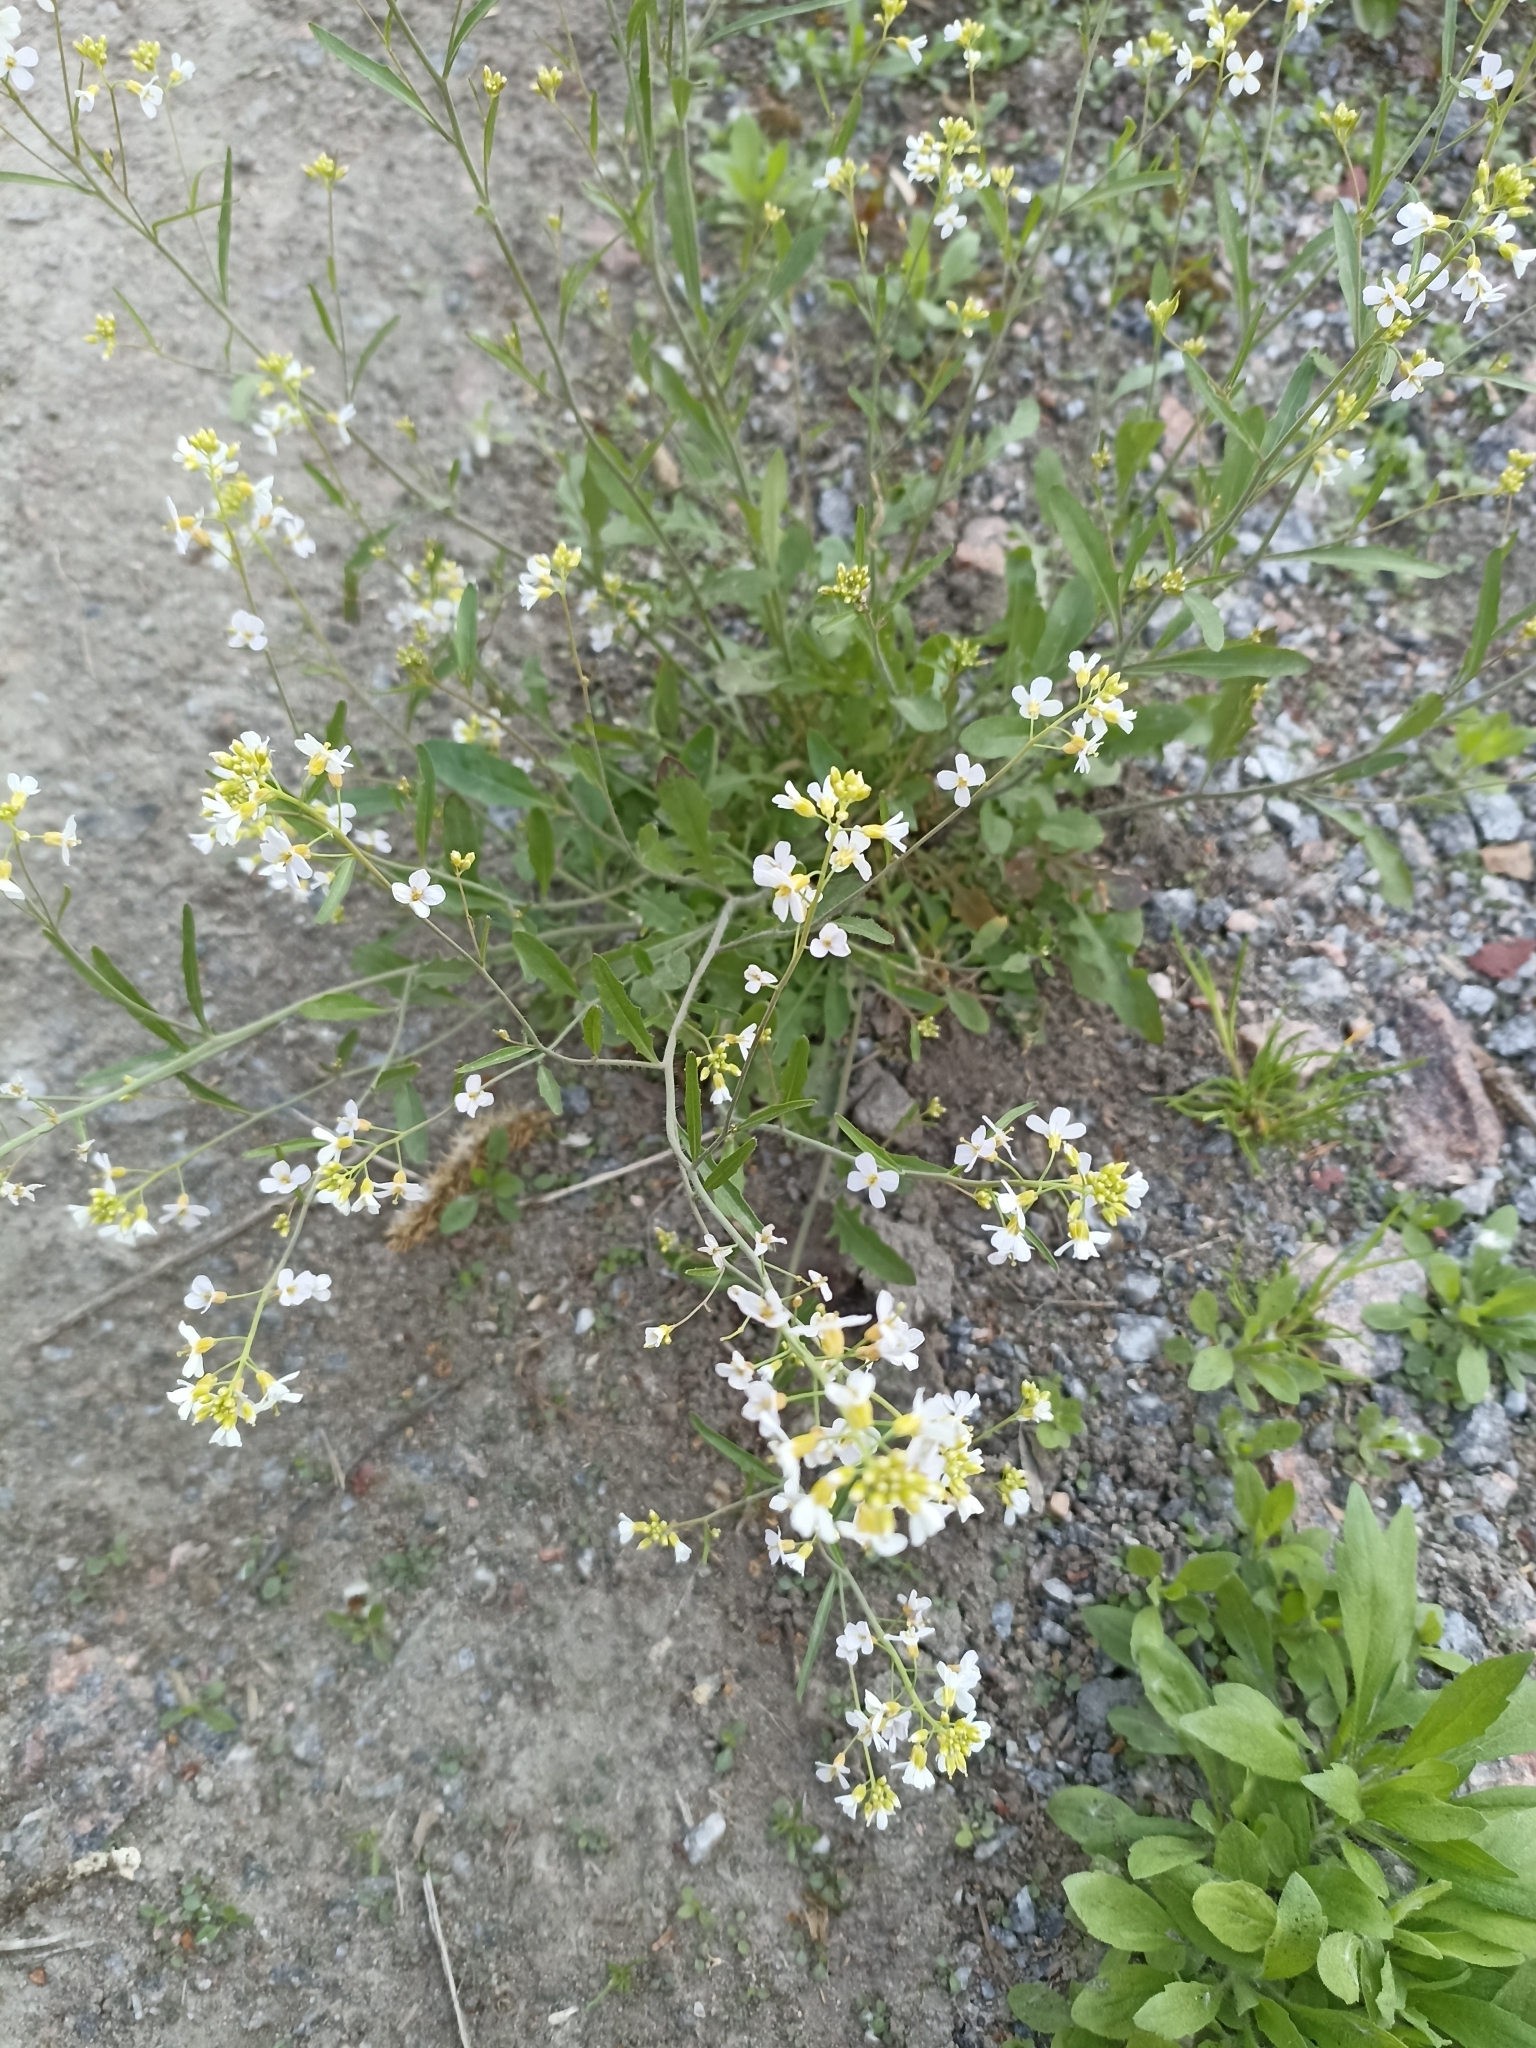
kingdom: Plantae
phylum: Tracheophyta
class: Magnoliopsida
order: Brassicales
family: Brassicaceae
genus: Arabidopsis
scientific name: Arabidopsis arenosa
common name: Sand rock-cress
